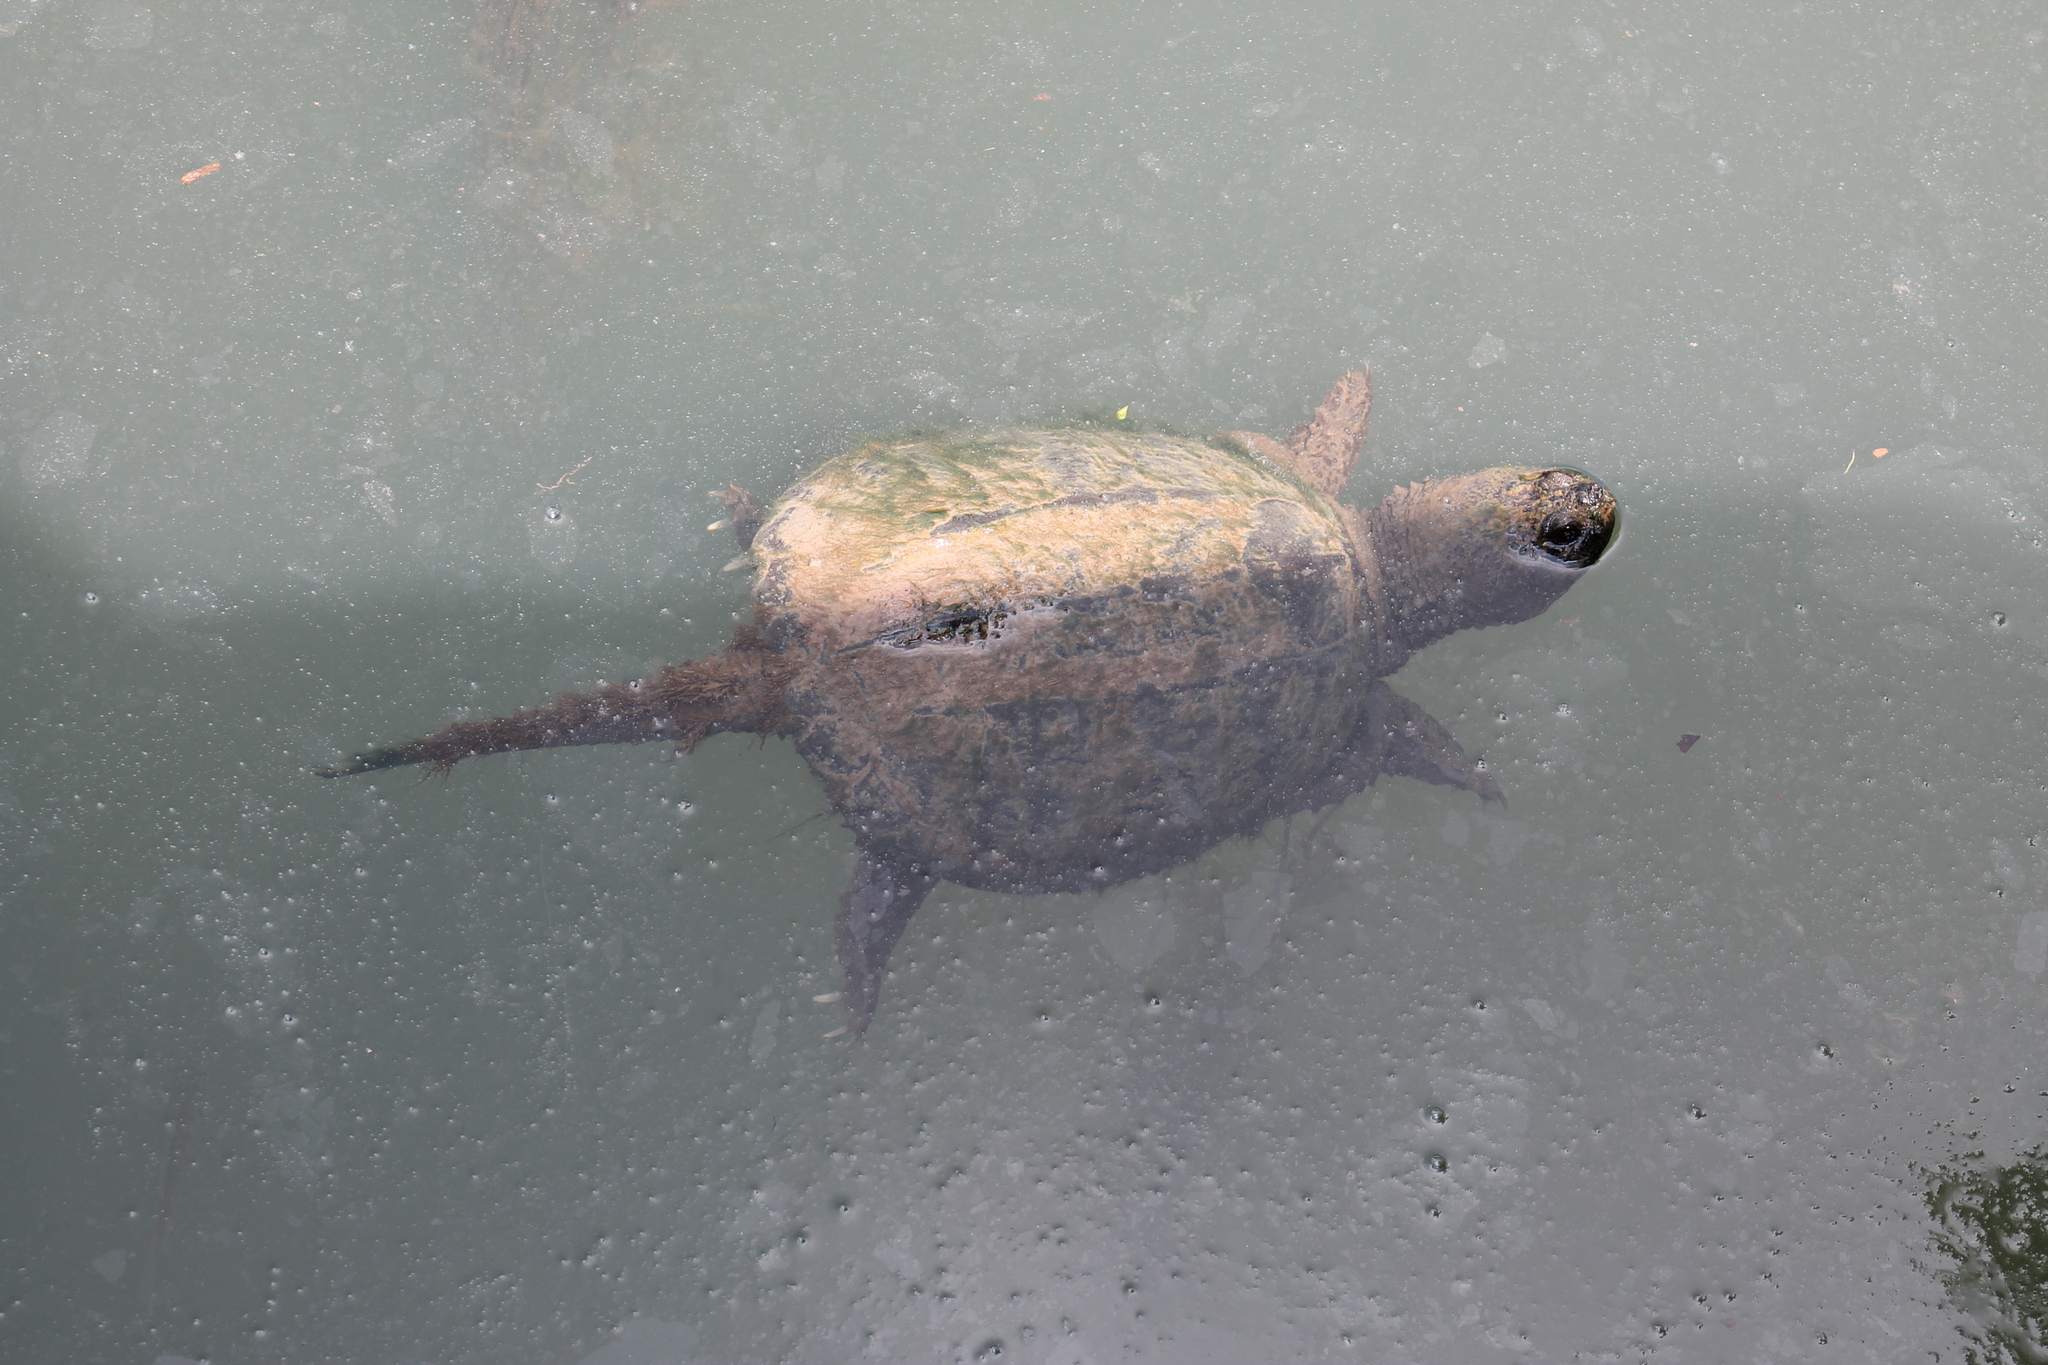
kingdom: Animalia
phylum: Chordata
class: Testudines
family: Chelydridae
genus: Chelydra
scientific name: Chelydra serpentina
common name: Common snapping turtle
